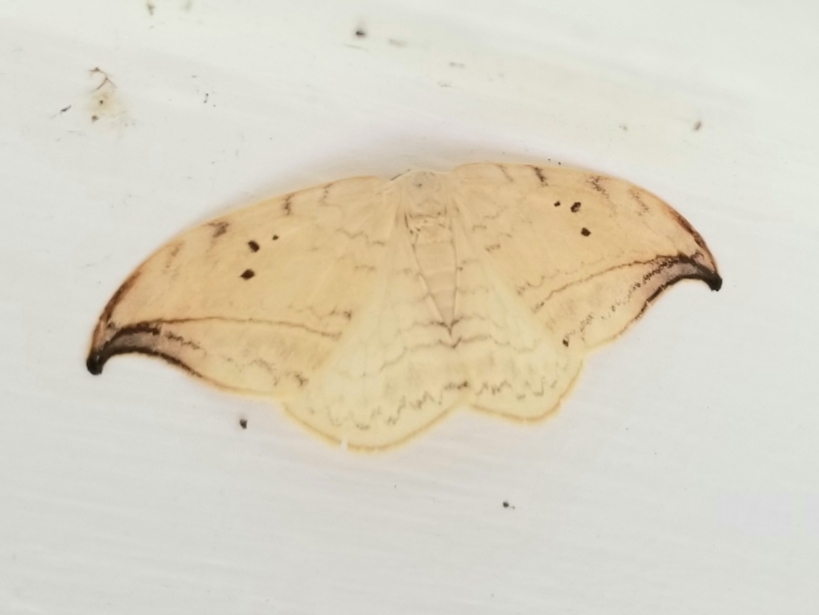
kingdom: Animalia
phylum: Arthropoda
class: Insecta
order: Lepidoptera
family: Drepanidae
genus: Drepana
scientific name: Drepana arcuata
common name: Arched hooktip moth
